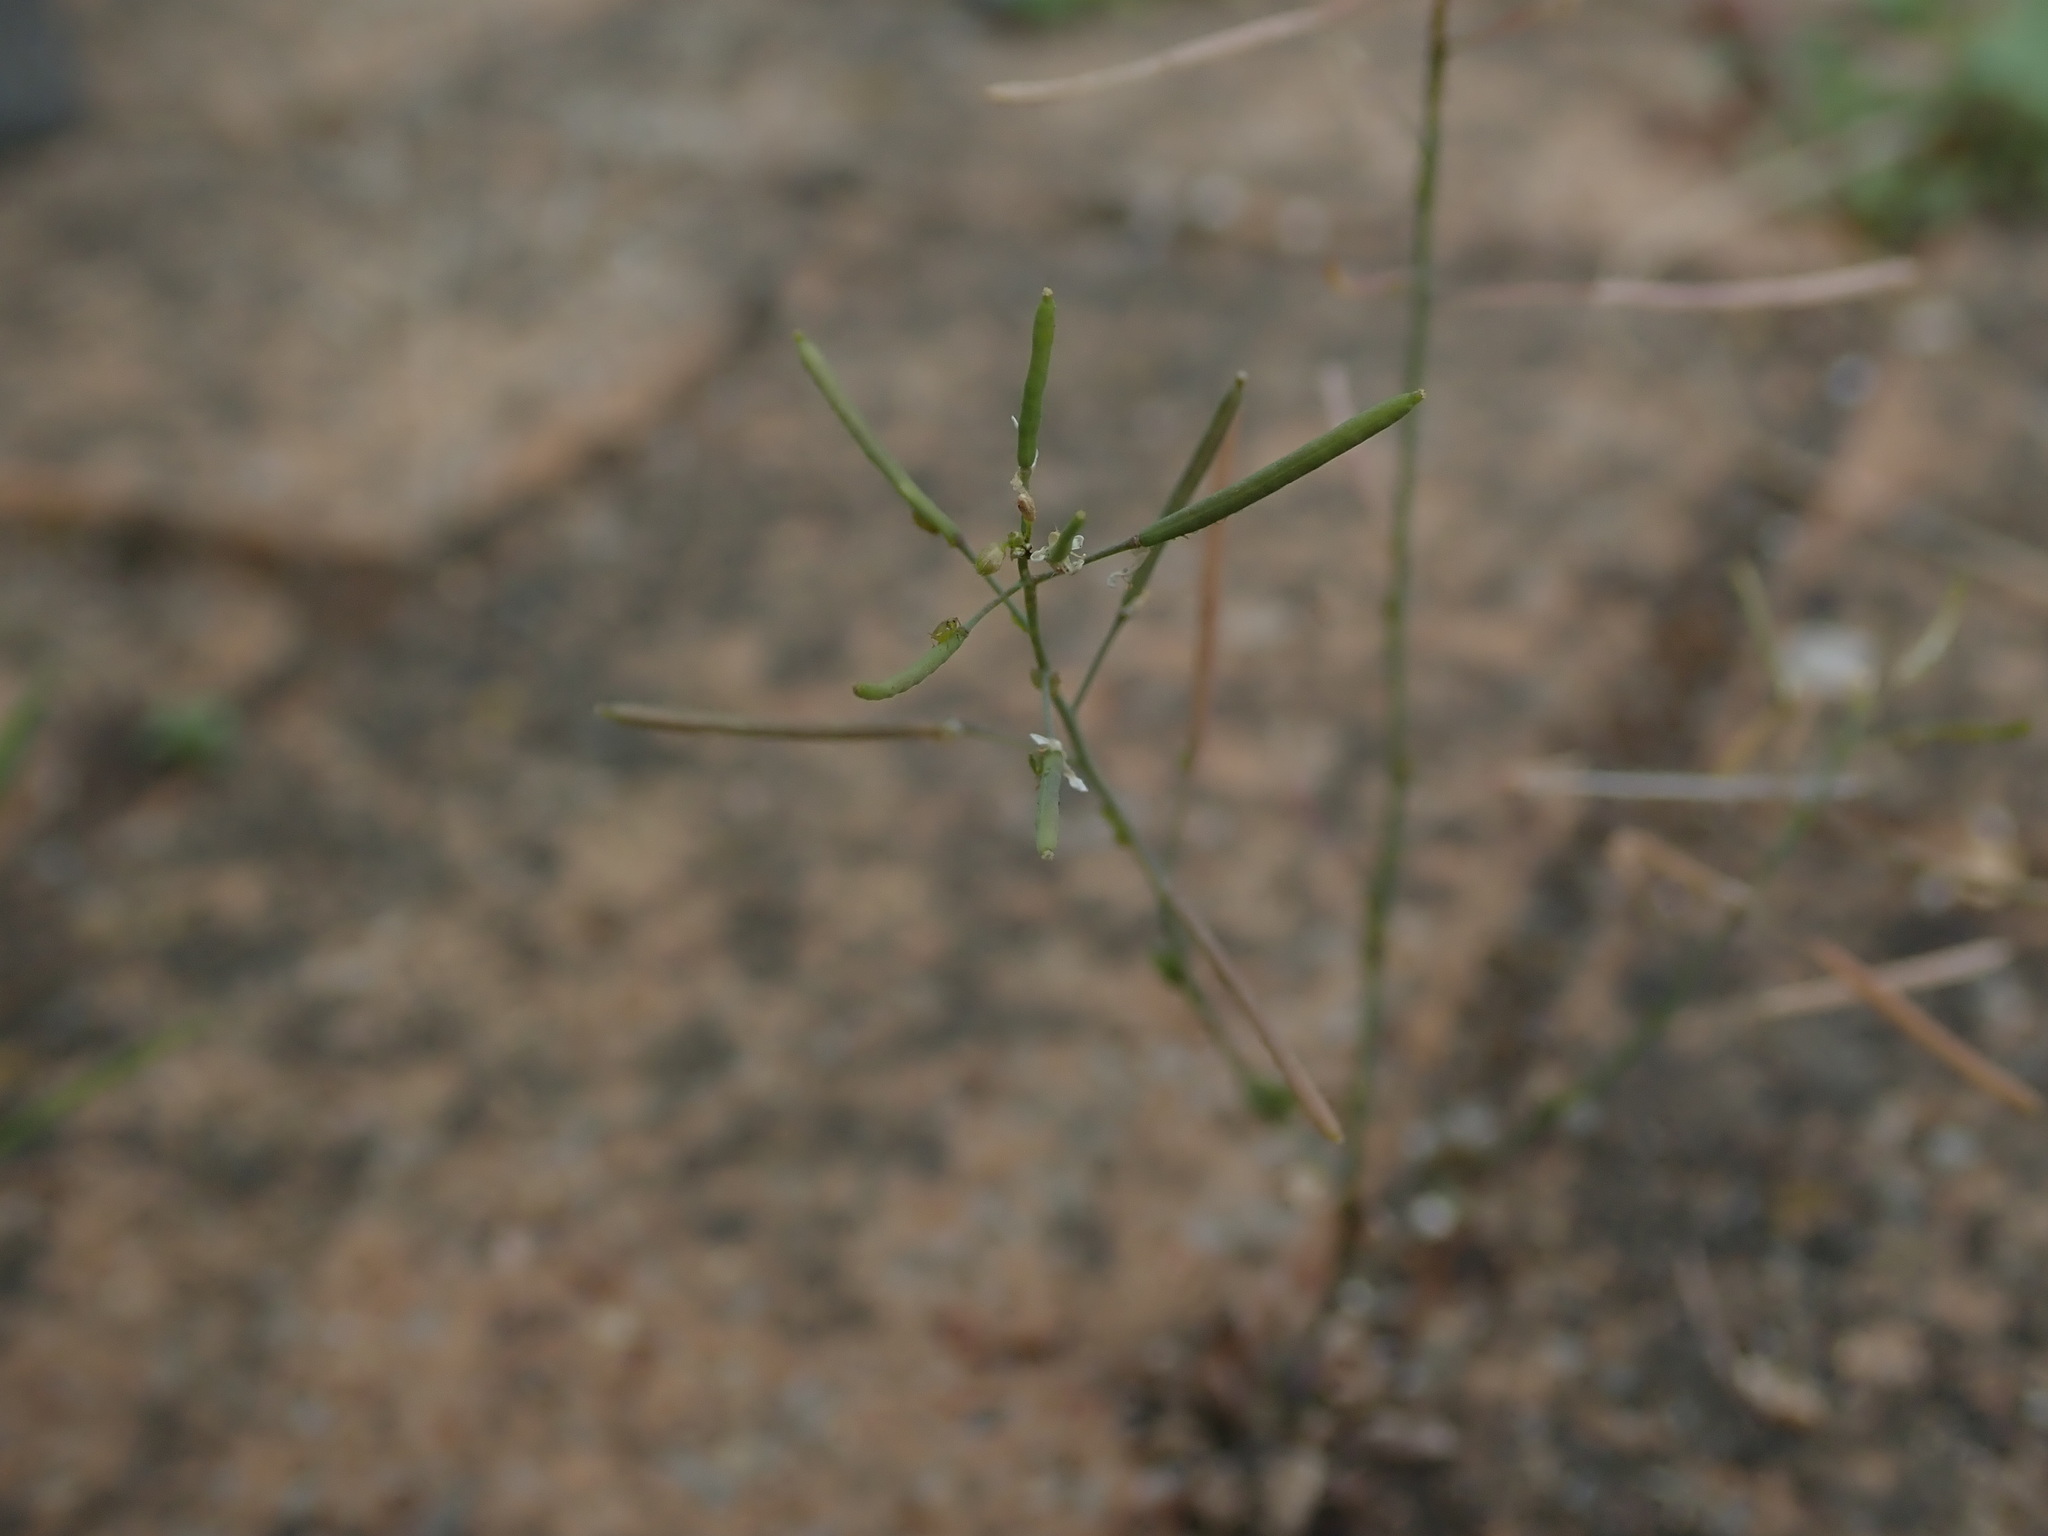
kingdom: Plantae
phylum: Tracheophyta
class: Magnoliopsida
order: Brassicales
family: Brassicaceae
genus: Arabidopsis
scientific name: Arabidopsis thaliana
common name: Thale cress
